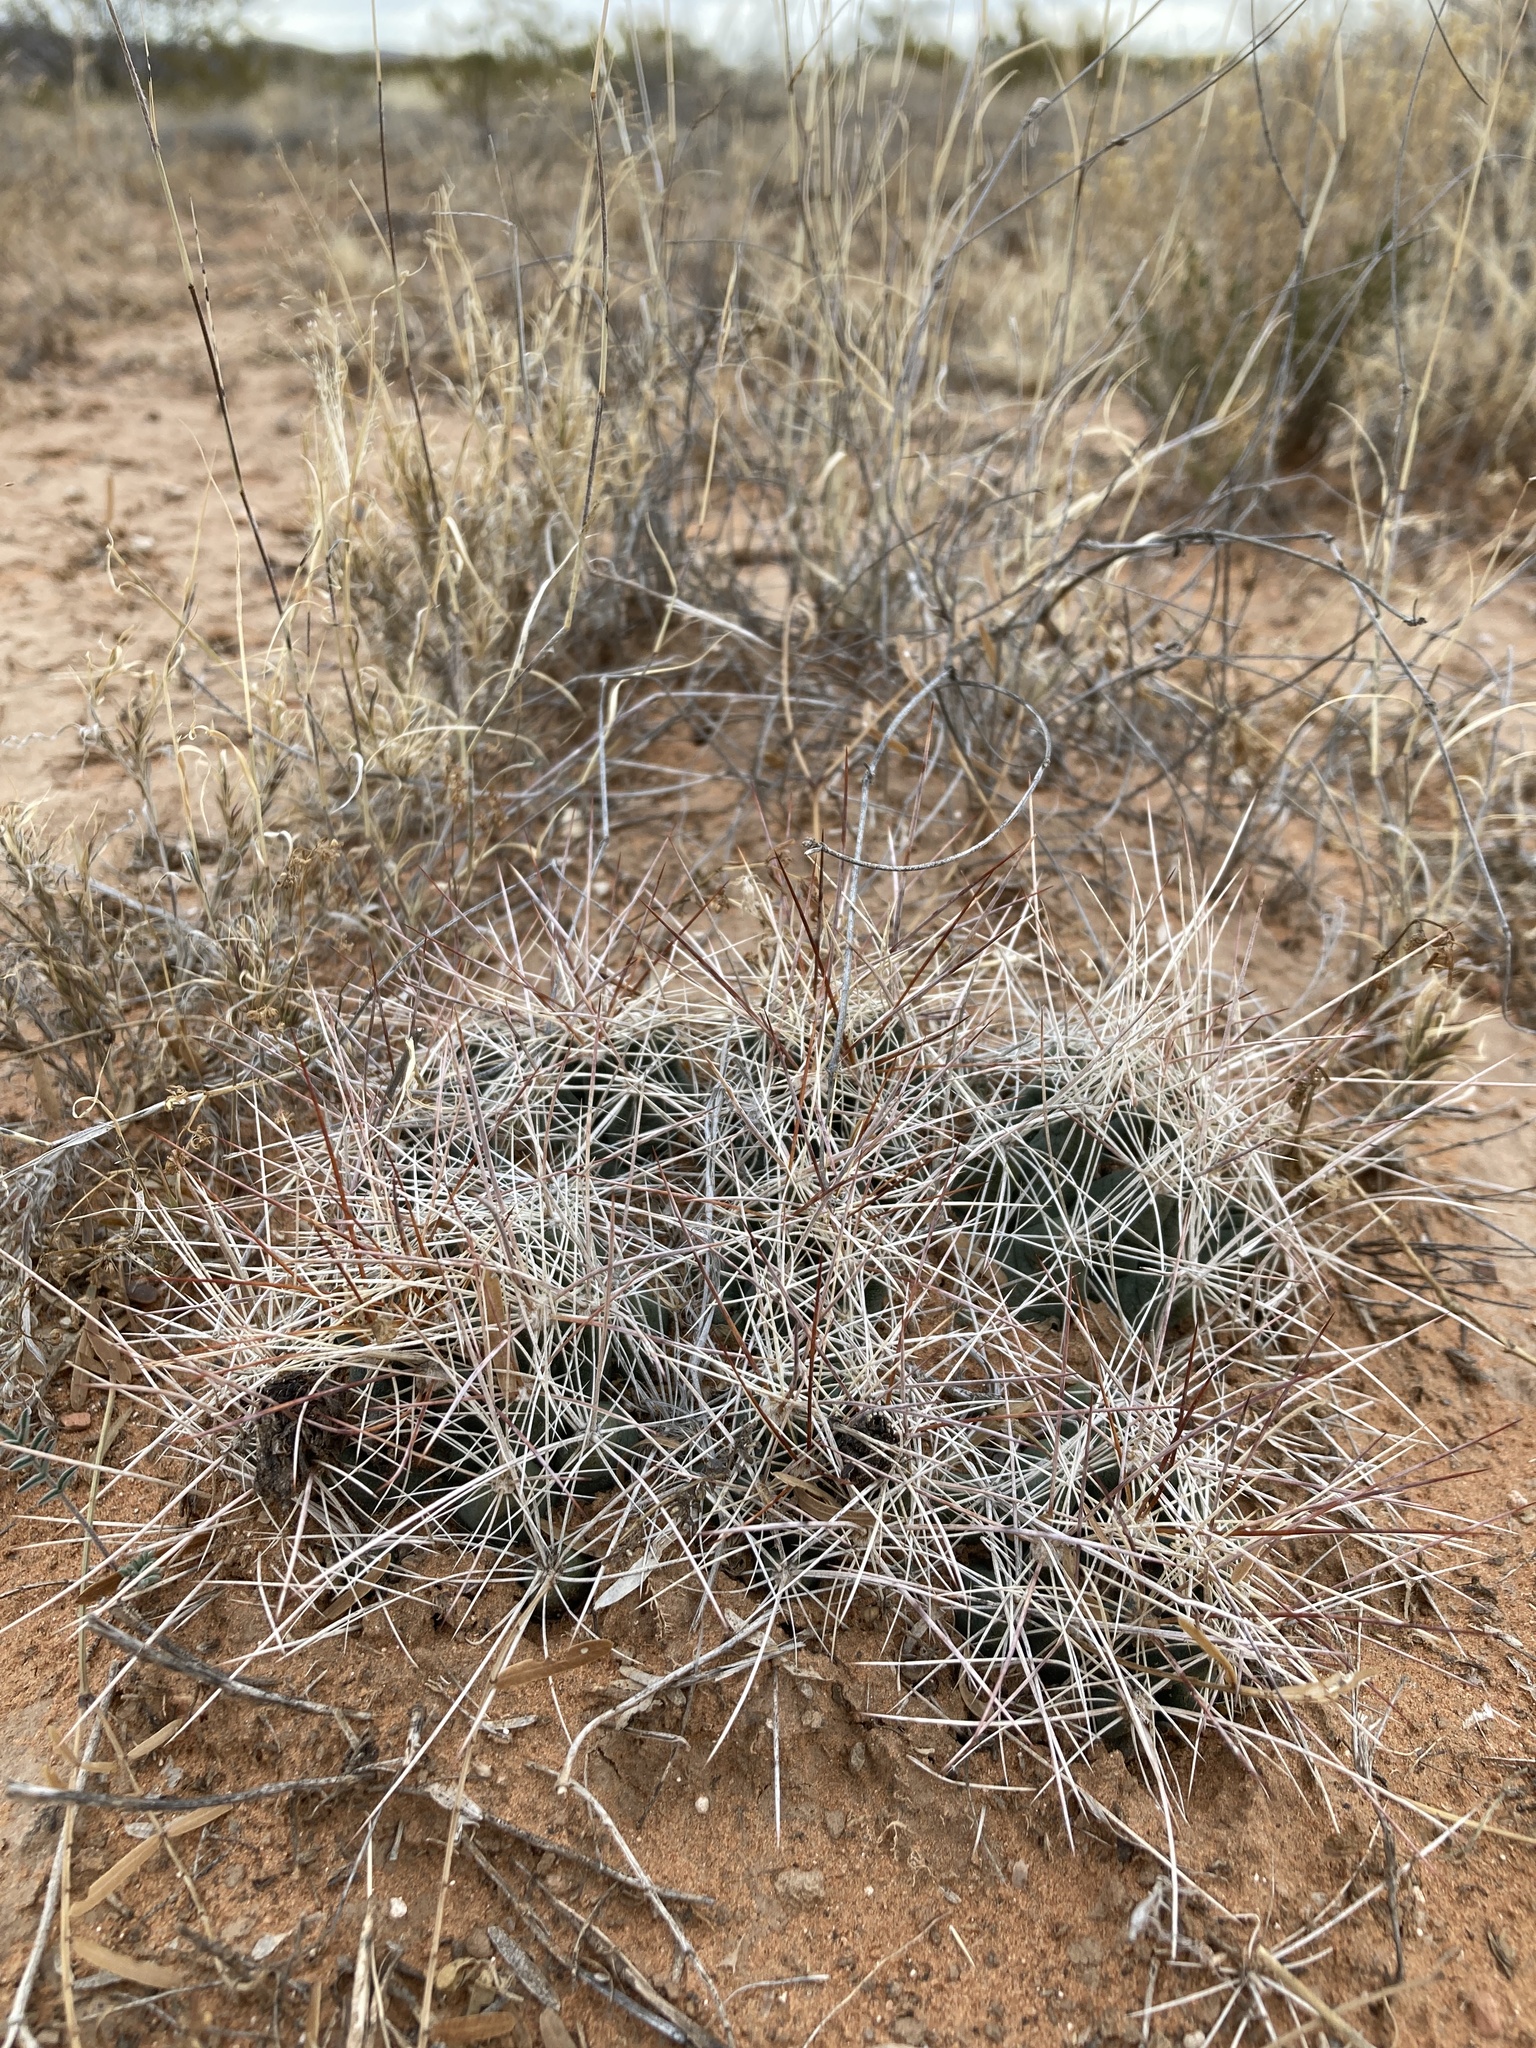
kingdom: Plantae
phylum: Tracheophyta
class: Magnoliopsida
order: Caryophyllales
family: Cactaceae
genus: Coryphantha
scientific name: Coryphantha macromeris
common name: Nipple beehive cactus
